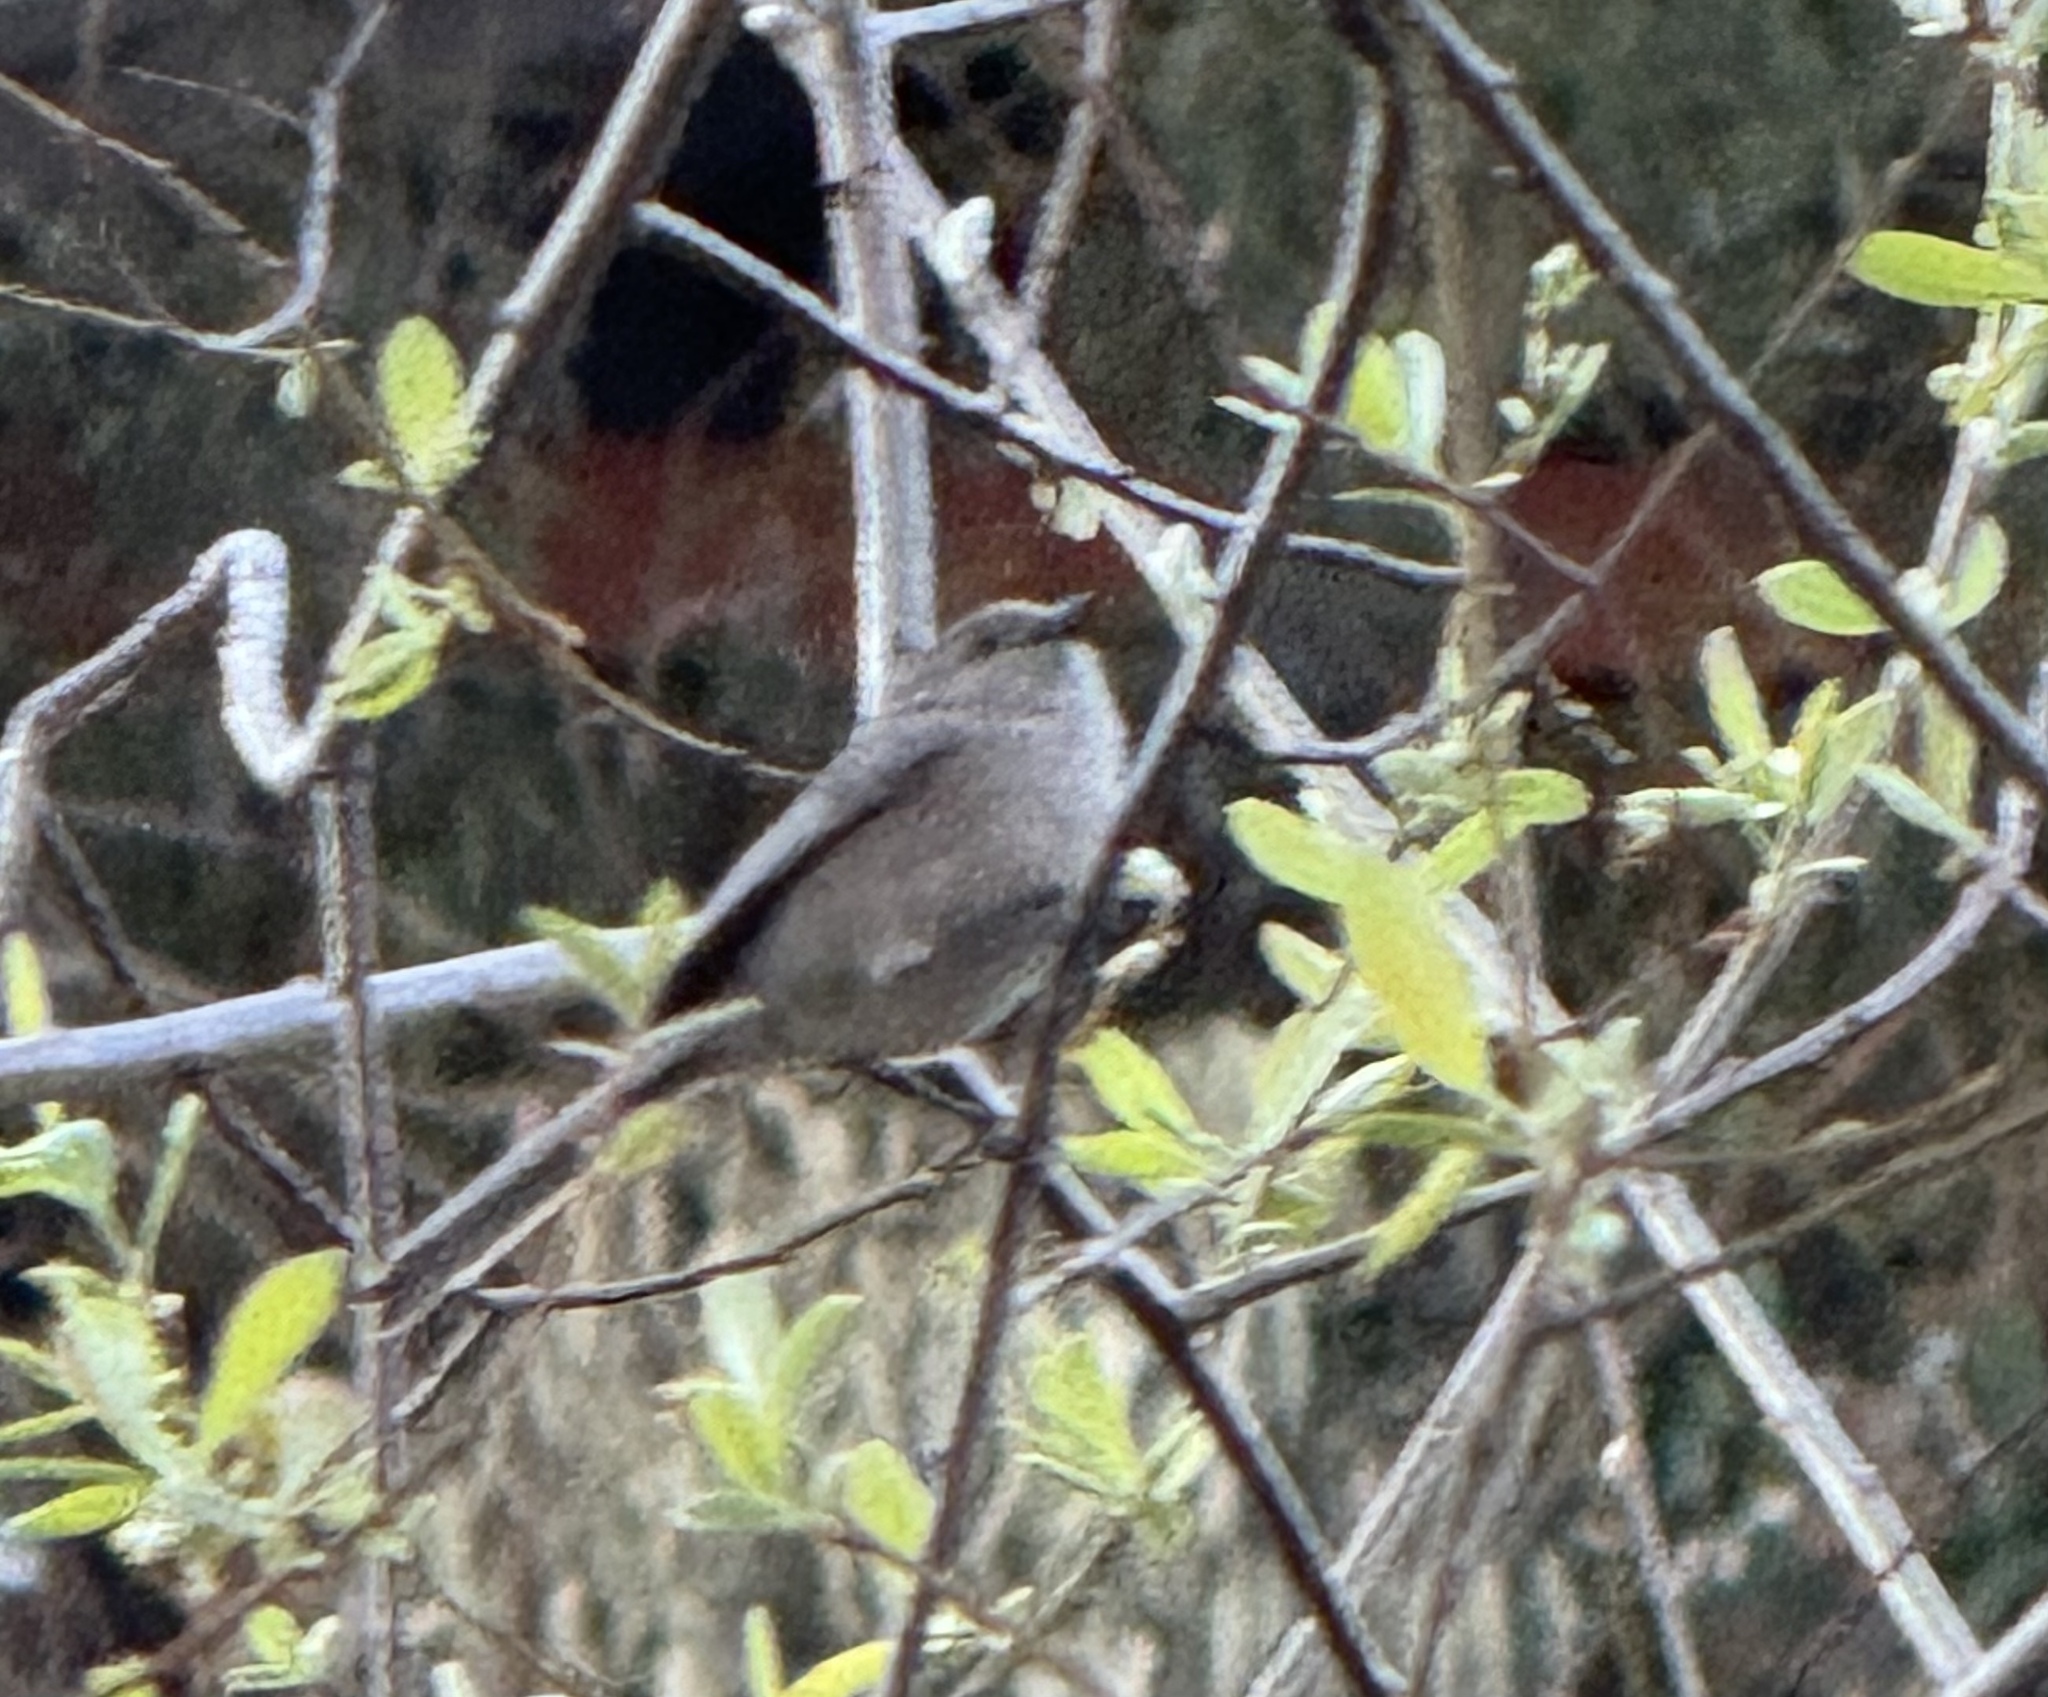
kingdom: Animalia
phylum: Chordata
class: Aves
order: Passeriformes
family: Aegithalidae
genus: Psaltriparus
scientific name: Psaltriparus minimus
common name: American bushtit
